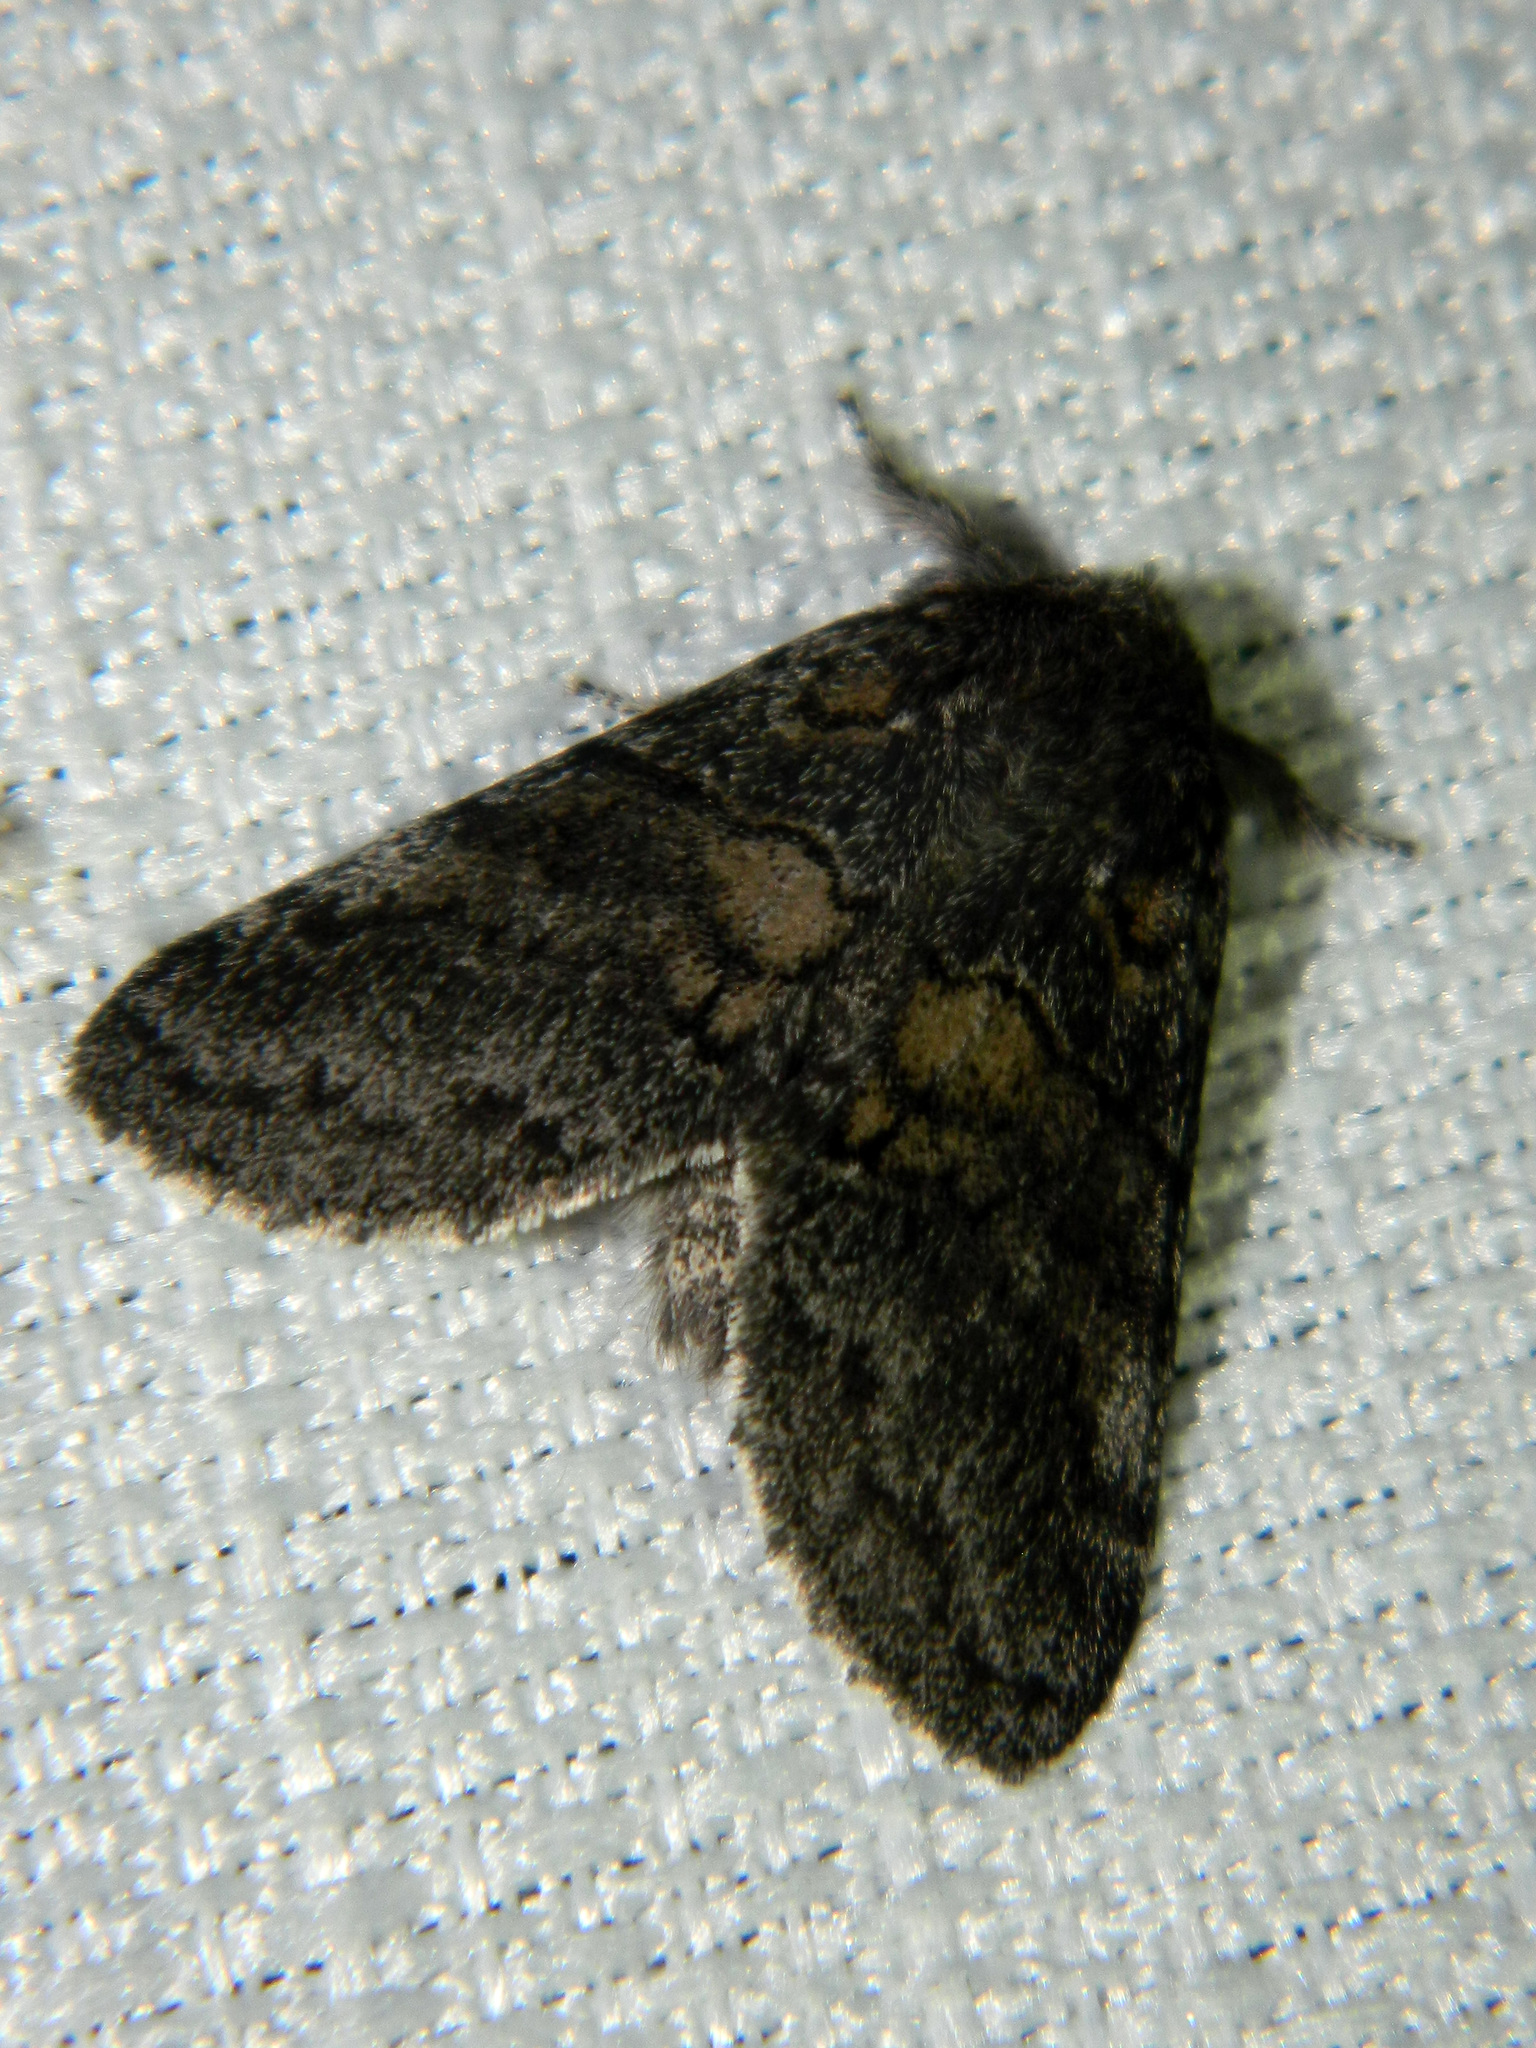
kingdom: Animalia
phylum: Arthropoda
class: Insecta
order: Lepidoptera
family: Notodontidae
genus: Gluphisia
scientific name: Gluphisia septentrionis
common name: Common gluphisia
